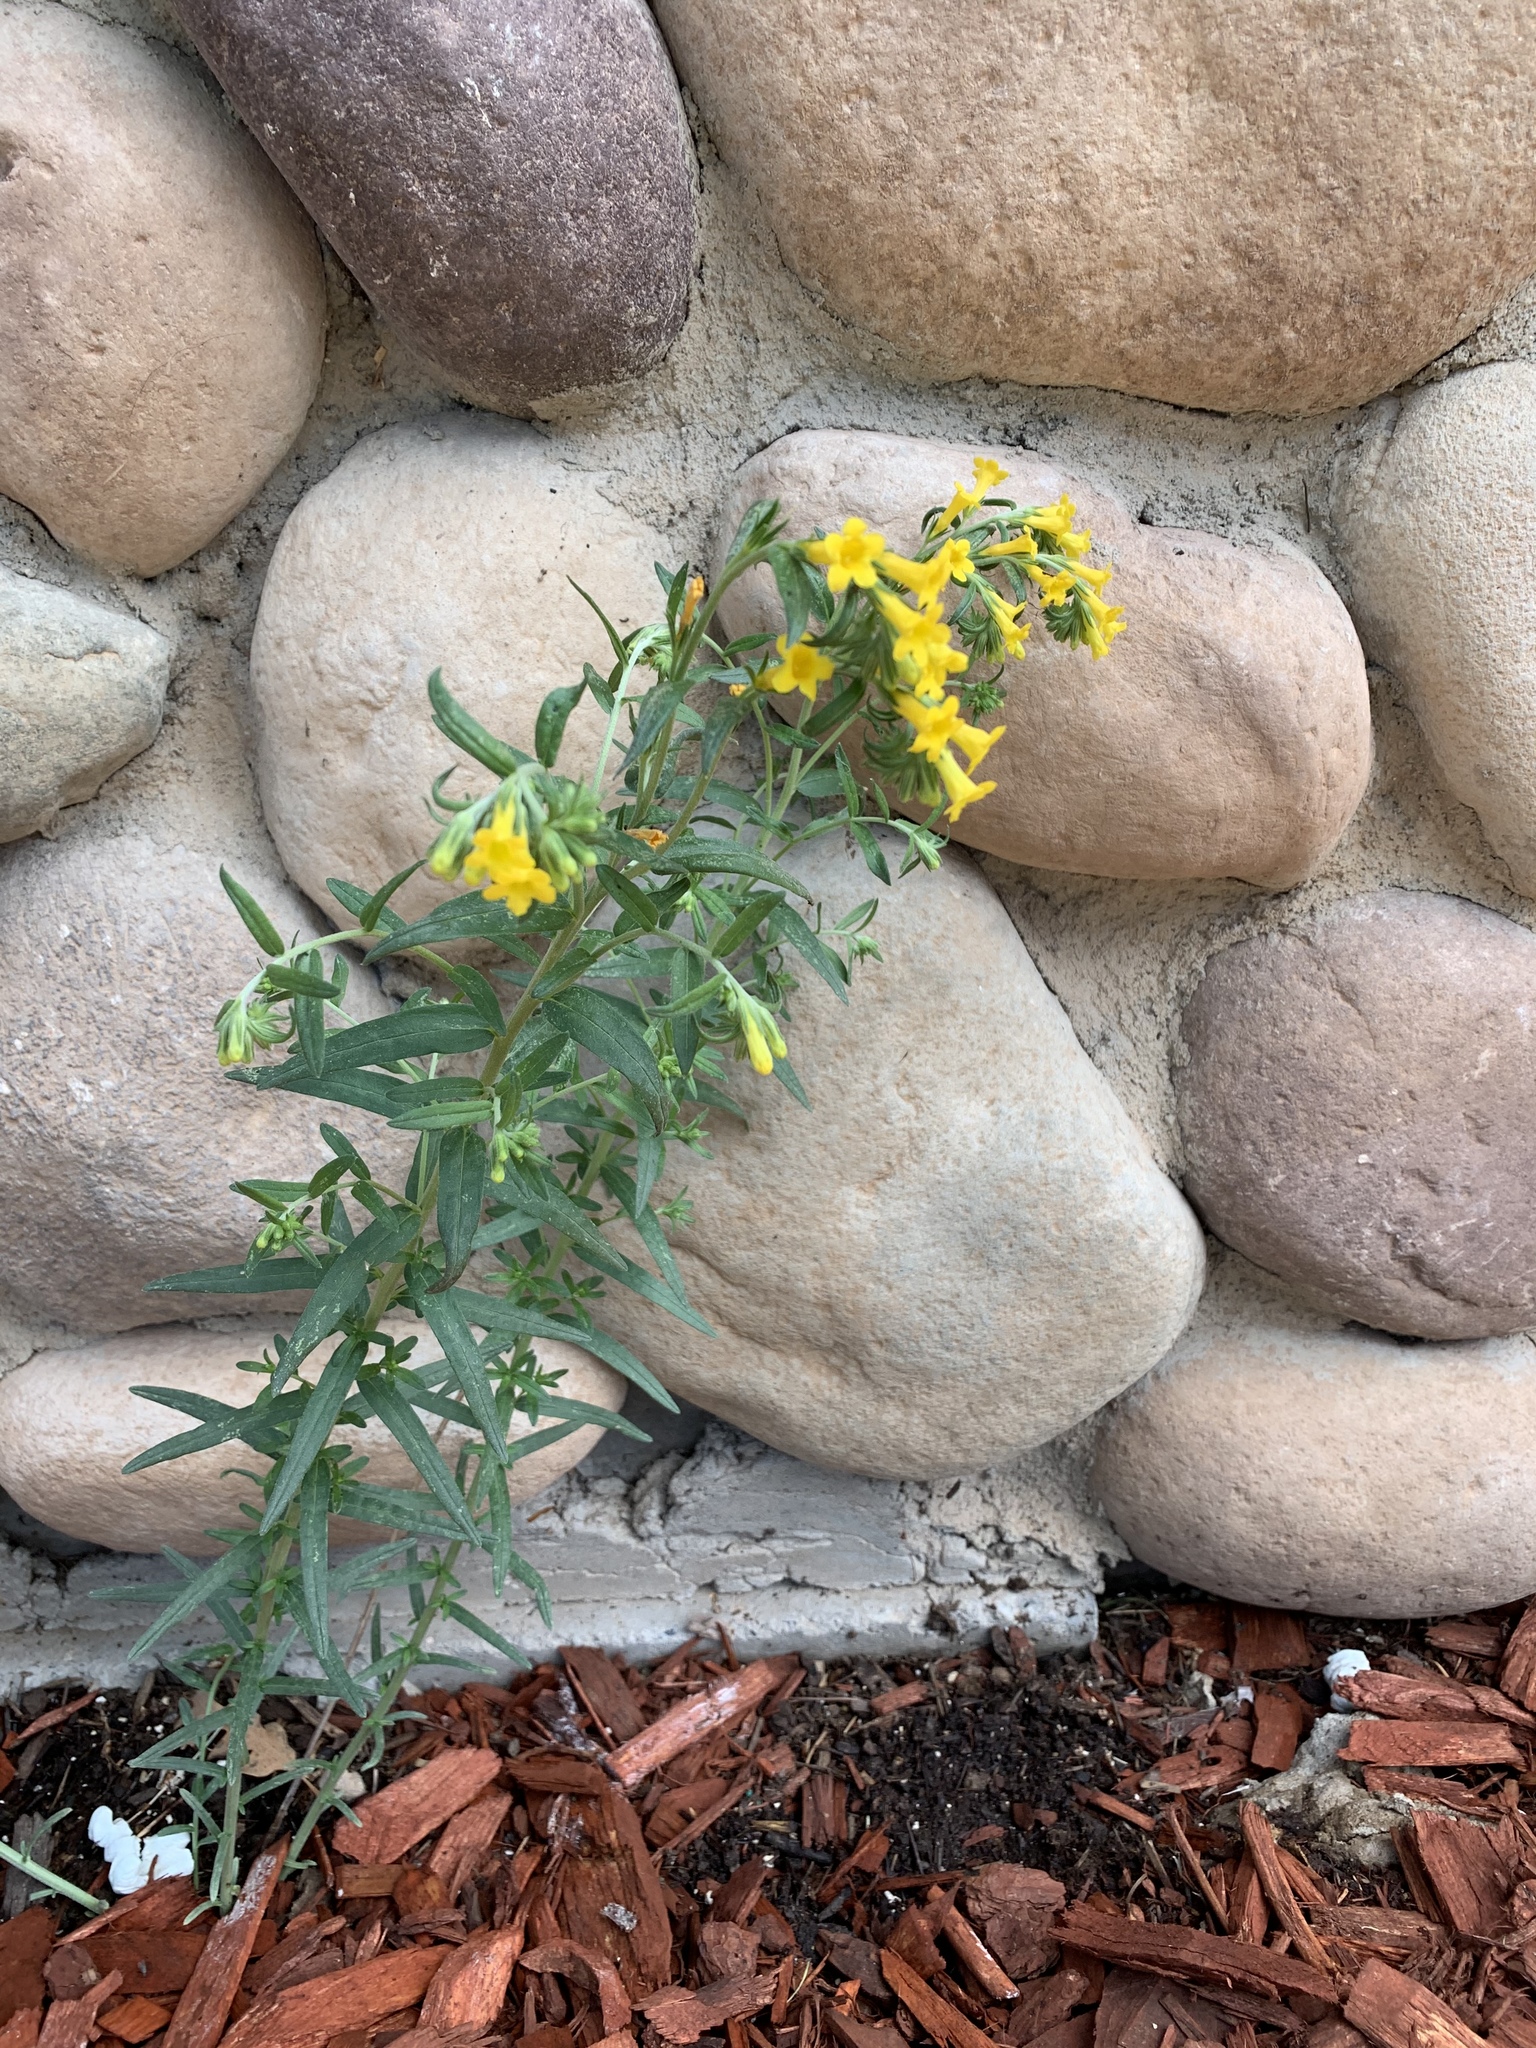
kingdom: Plantae
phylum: Tracheophyta
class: Magnoliopsida
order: Boraginales
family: Boraginaceae
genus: Lithospermum
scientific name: Lithospermum multiflorum
